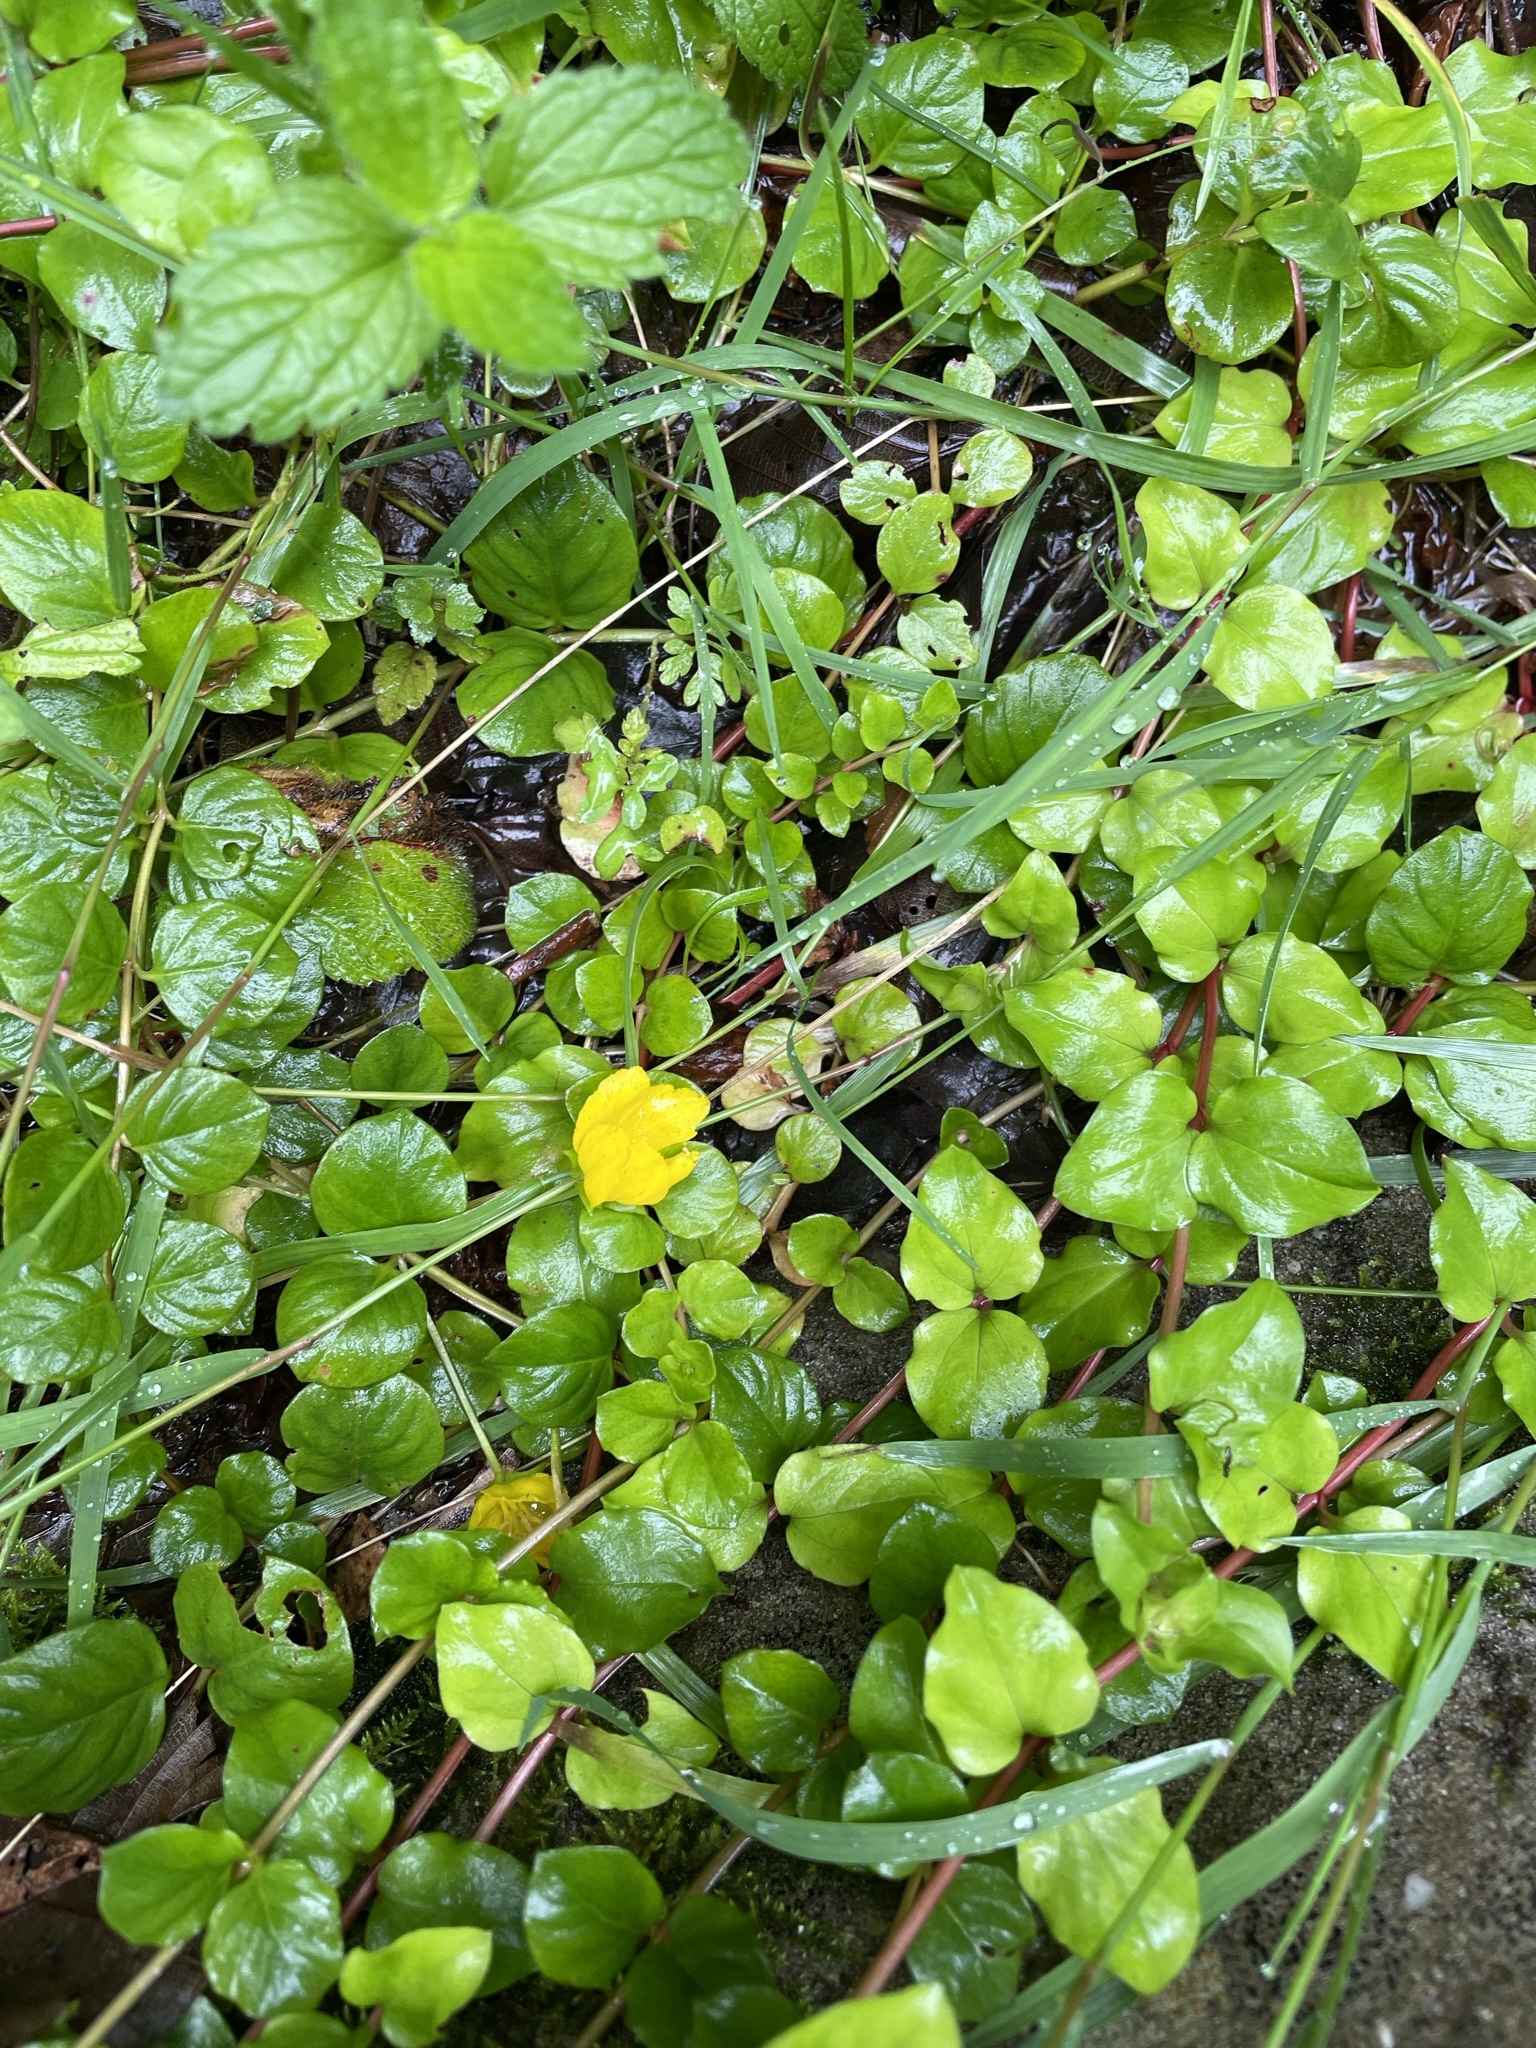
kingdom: Plantae
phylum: Tracheophyta
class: Magnoliopsida
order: Ericales
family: Primulaceae
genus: Lysimachia
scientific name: Lysimachia nummularia
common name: Moneywort
